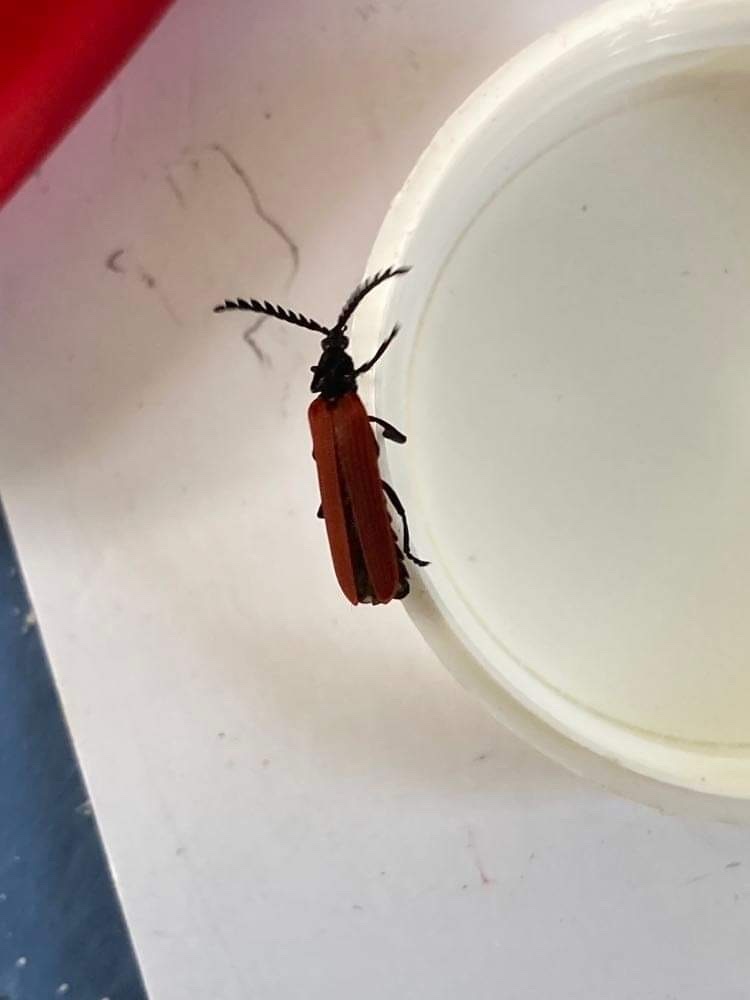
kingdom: Animalia
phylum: Arthropoda
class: Insecta
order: Coleoptera
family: Lycidae
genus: Porrostoma
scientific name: Porrostoma rufipenne
